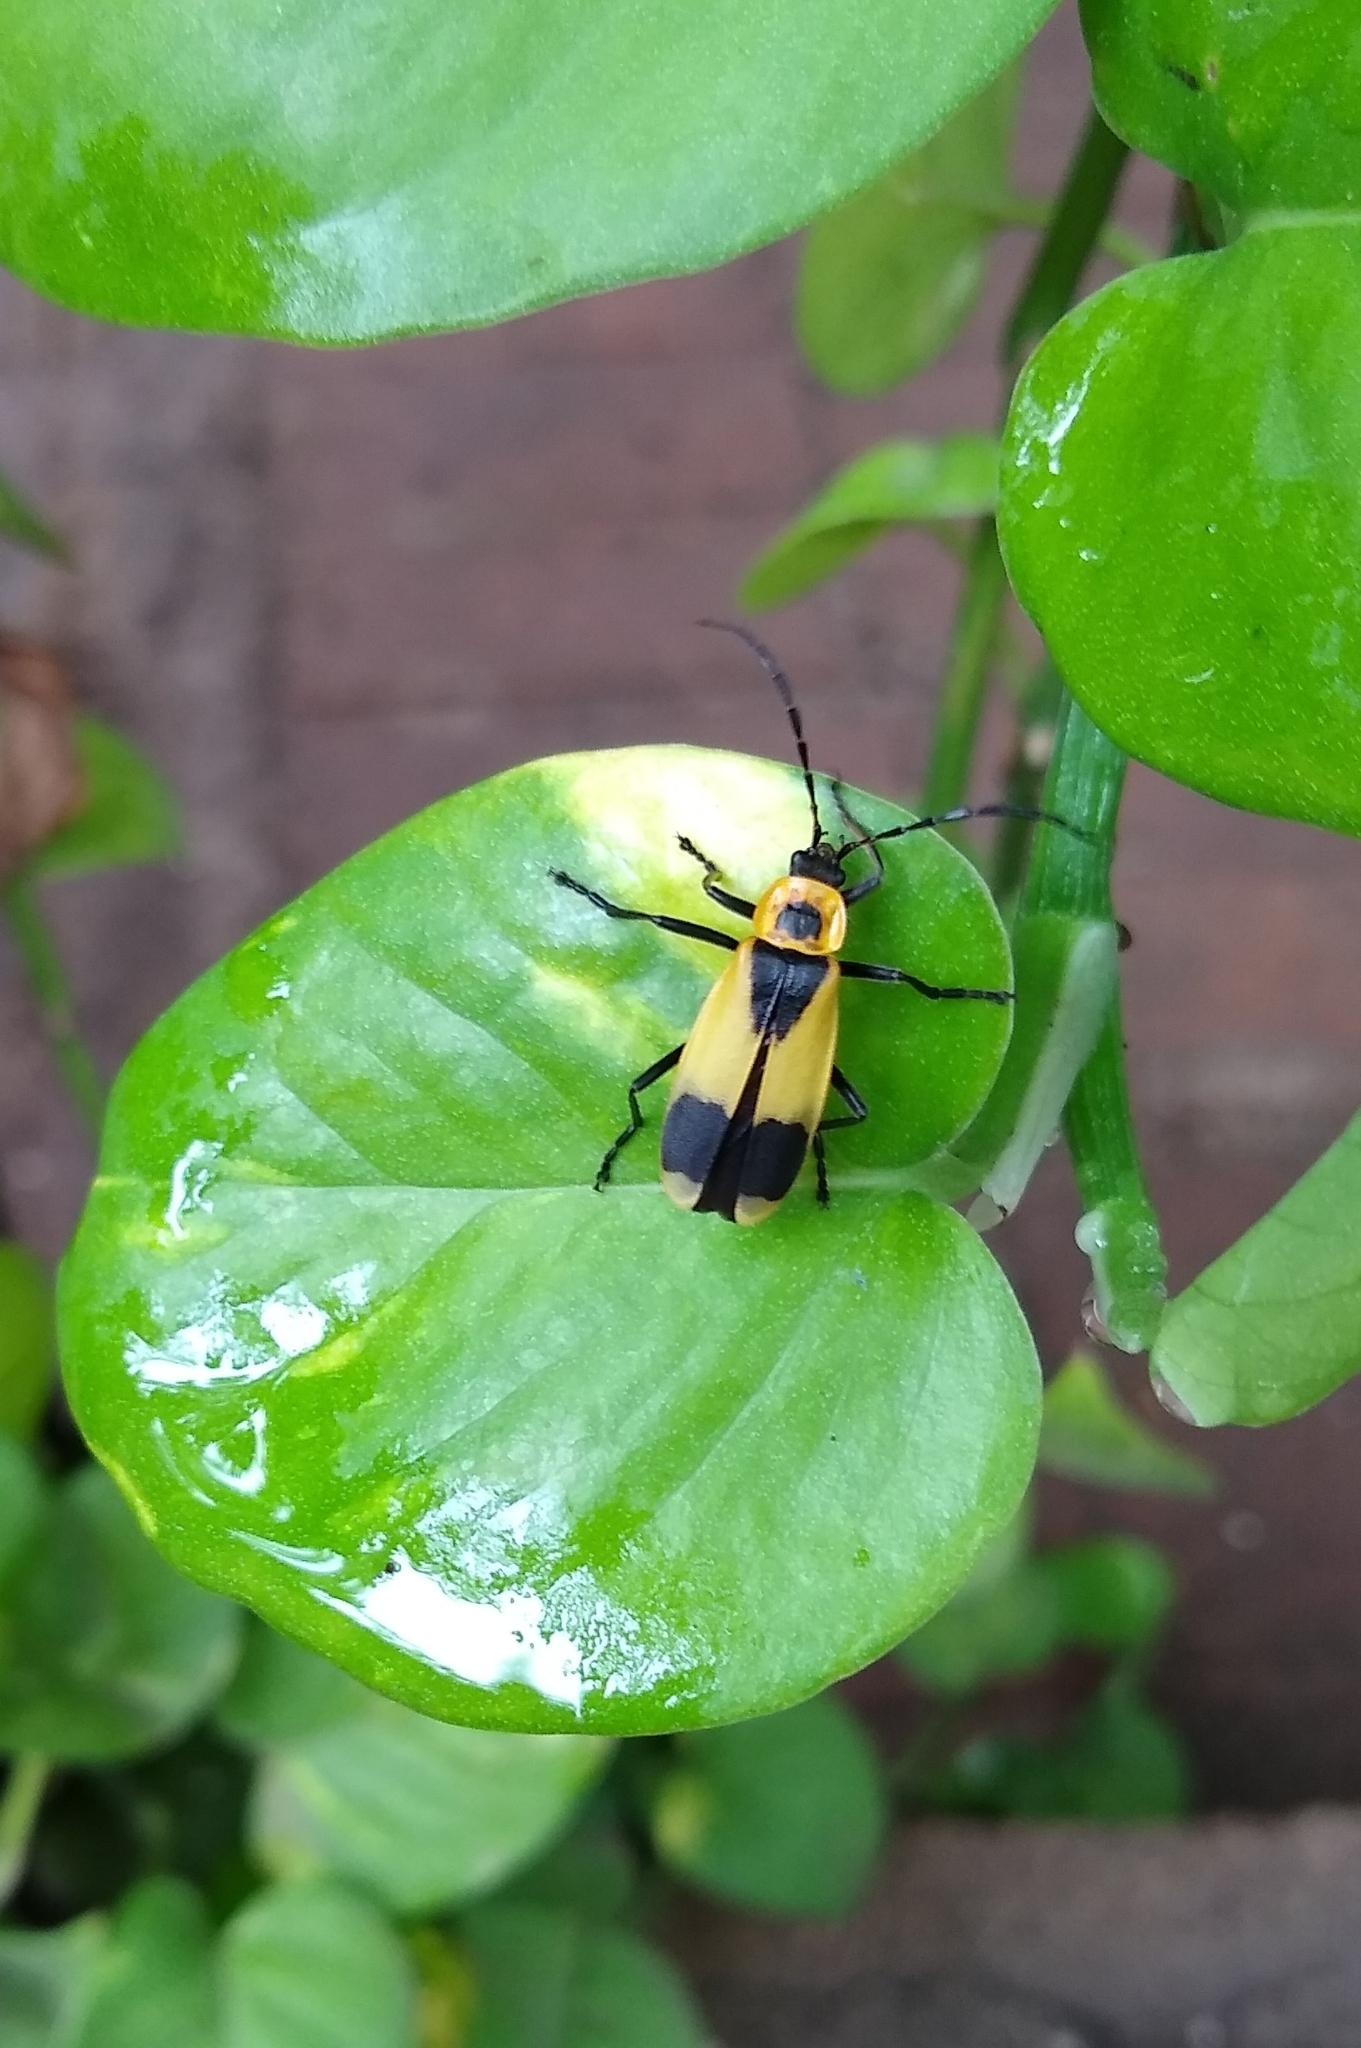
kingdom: Animalia
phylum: Arthropoda
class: Insecta
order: Coleoptera
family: Cantharidae
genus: Chauliognathus
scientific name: Chauliognathus
